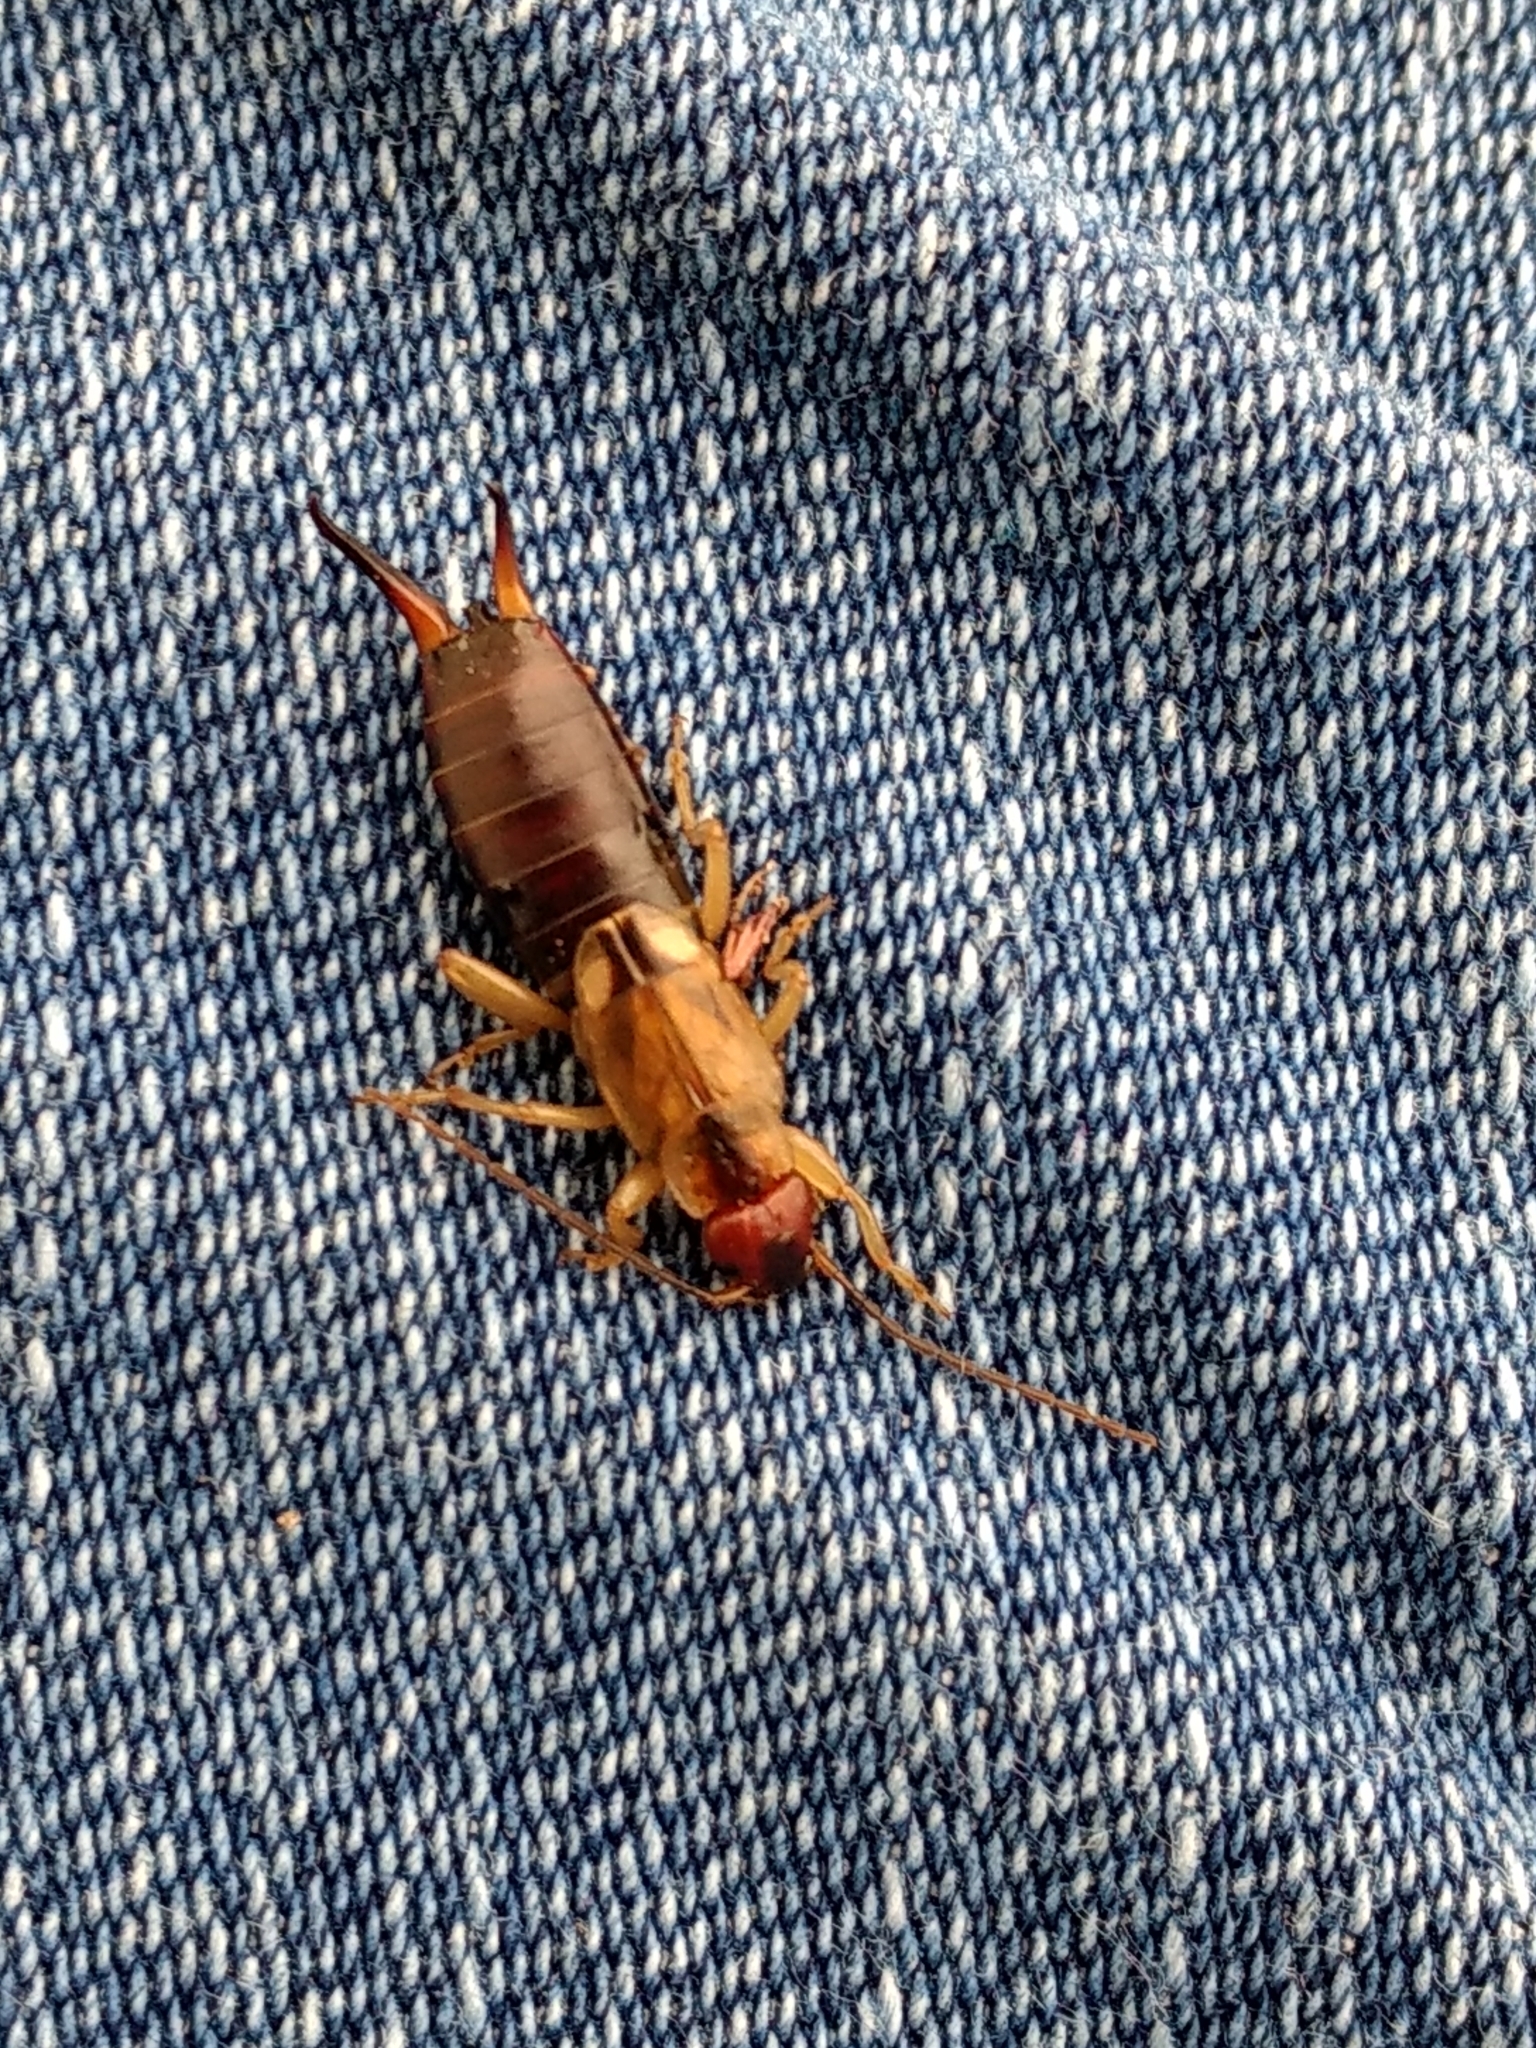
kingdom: Animalia
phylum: Arthropoda
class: Insecta
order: Dermaptera
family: Forficulidae
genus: Forficula
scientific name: Forficula
